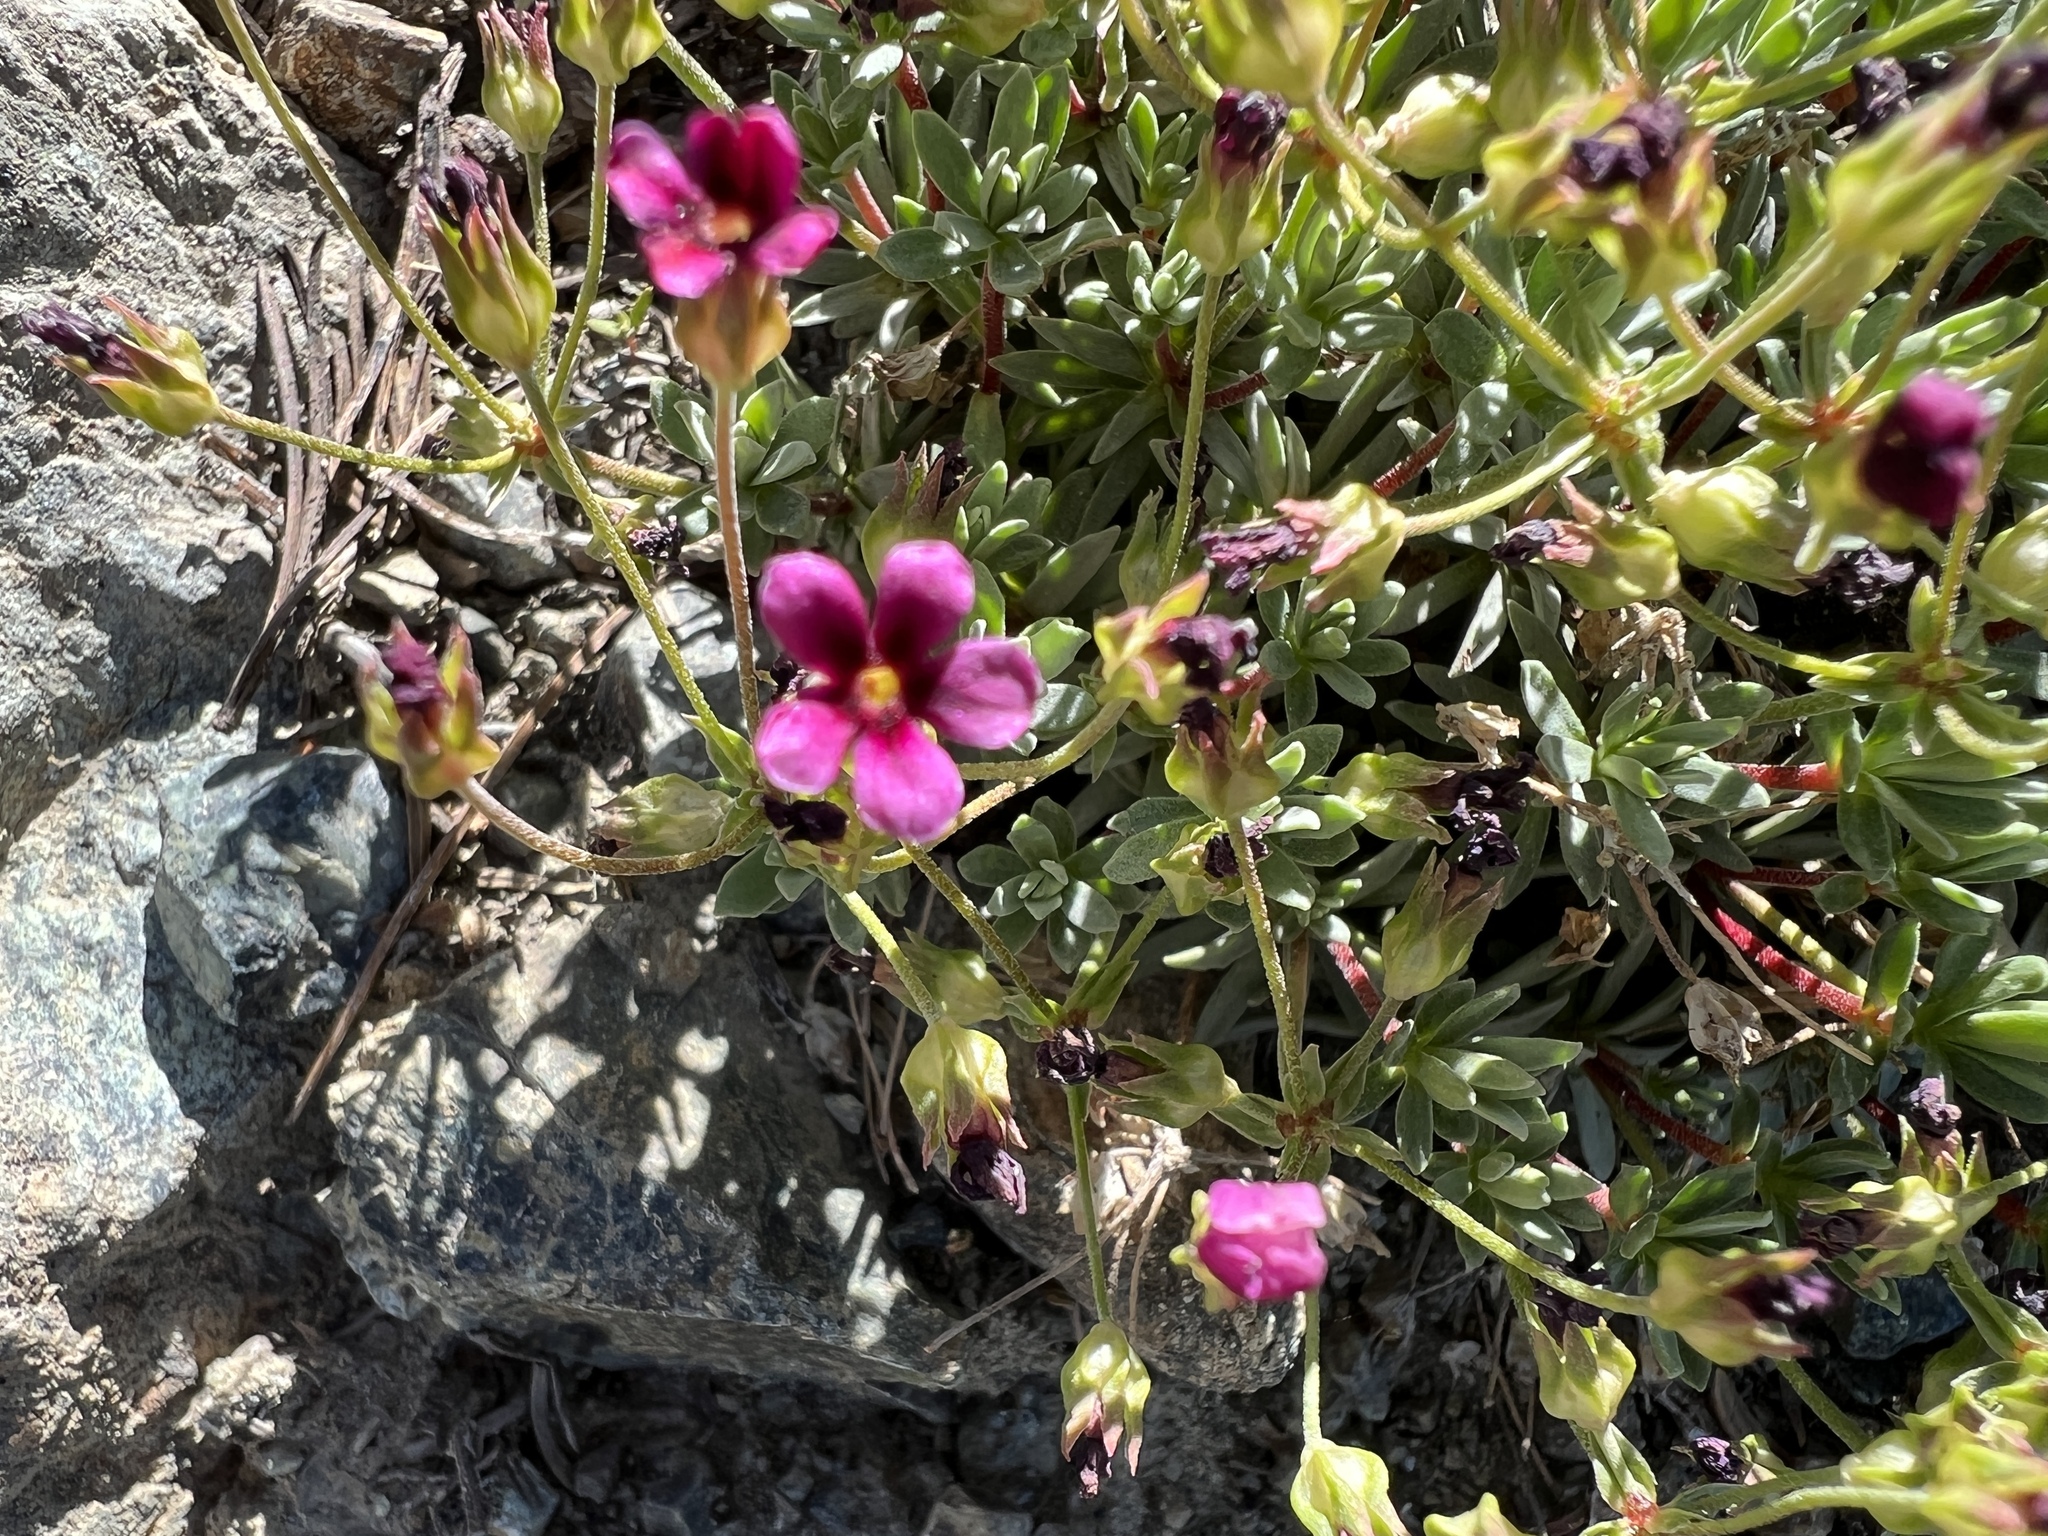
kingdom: Plantae
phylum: Tracheophyta
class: Magnoliopsida
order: Ericales
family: Primulaceae
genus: Androsace
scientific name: Androsace nivalis
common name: Snow dwarf-primrose
